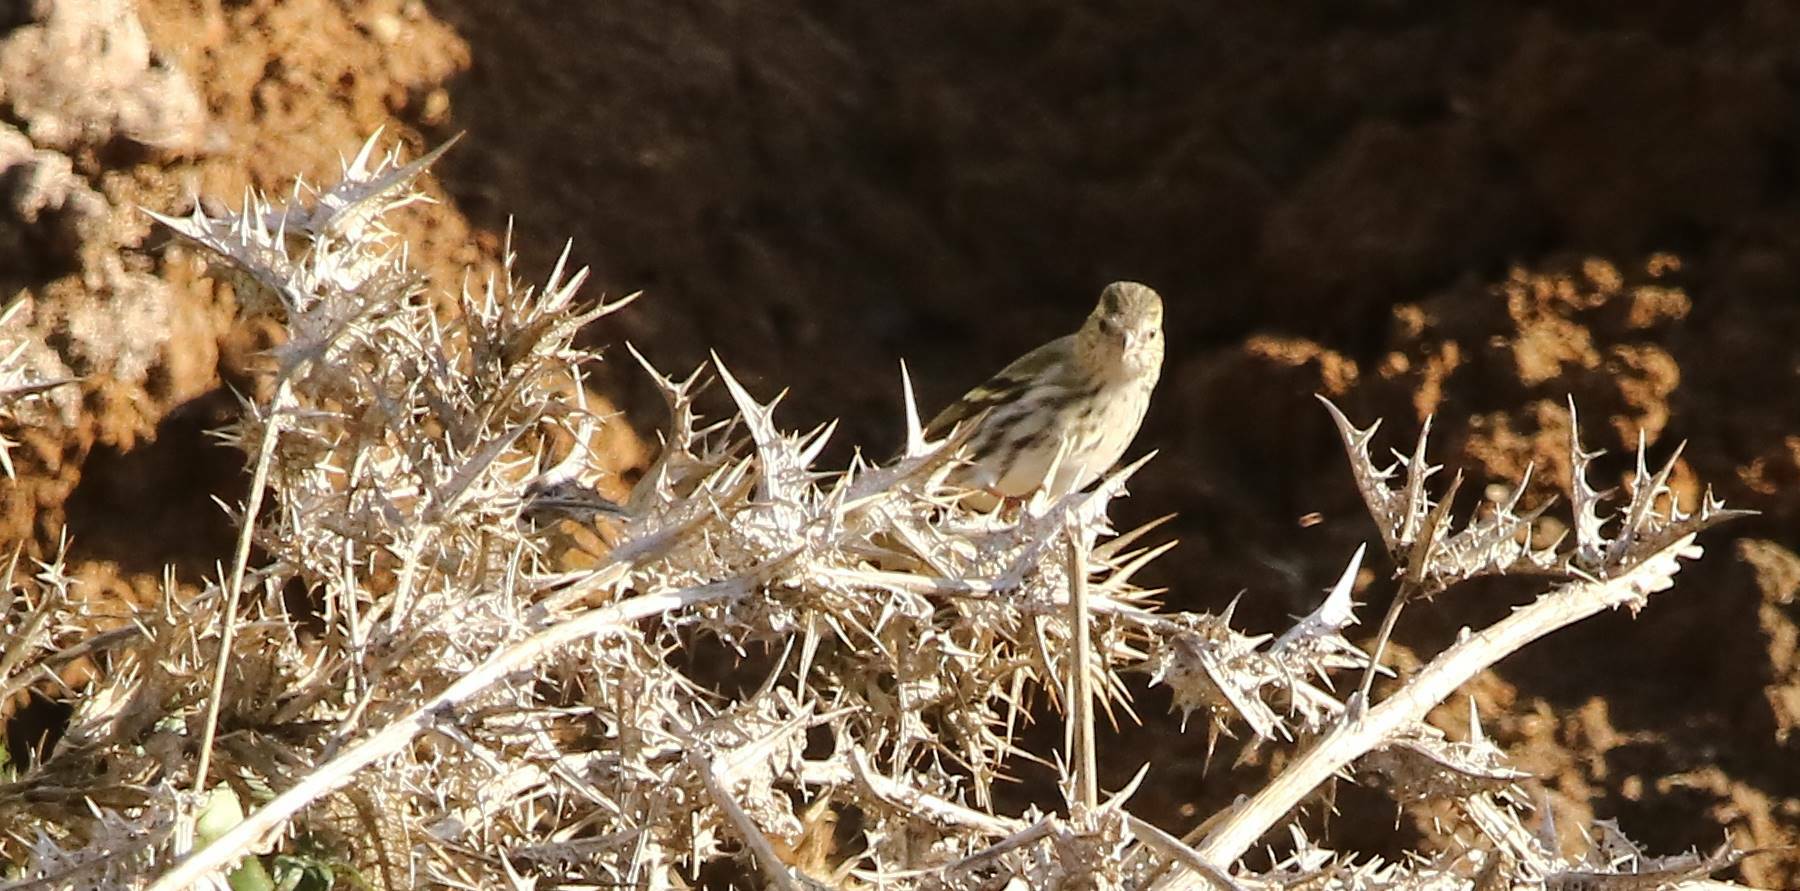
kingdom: Animalia
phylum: Chordata
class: Aves
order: Passeriformes
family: Fringillidae
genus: Spinus
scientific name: Spinus spinus
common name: Eurasian siskin
